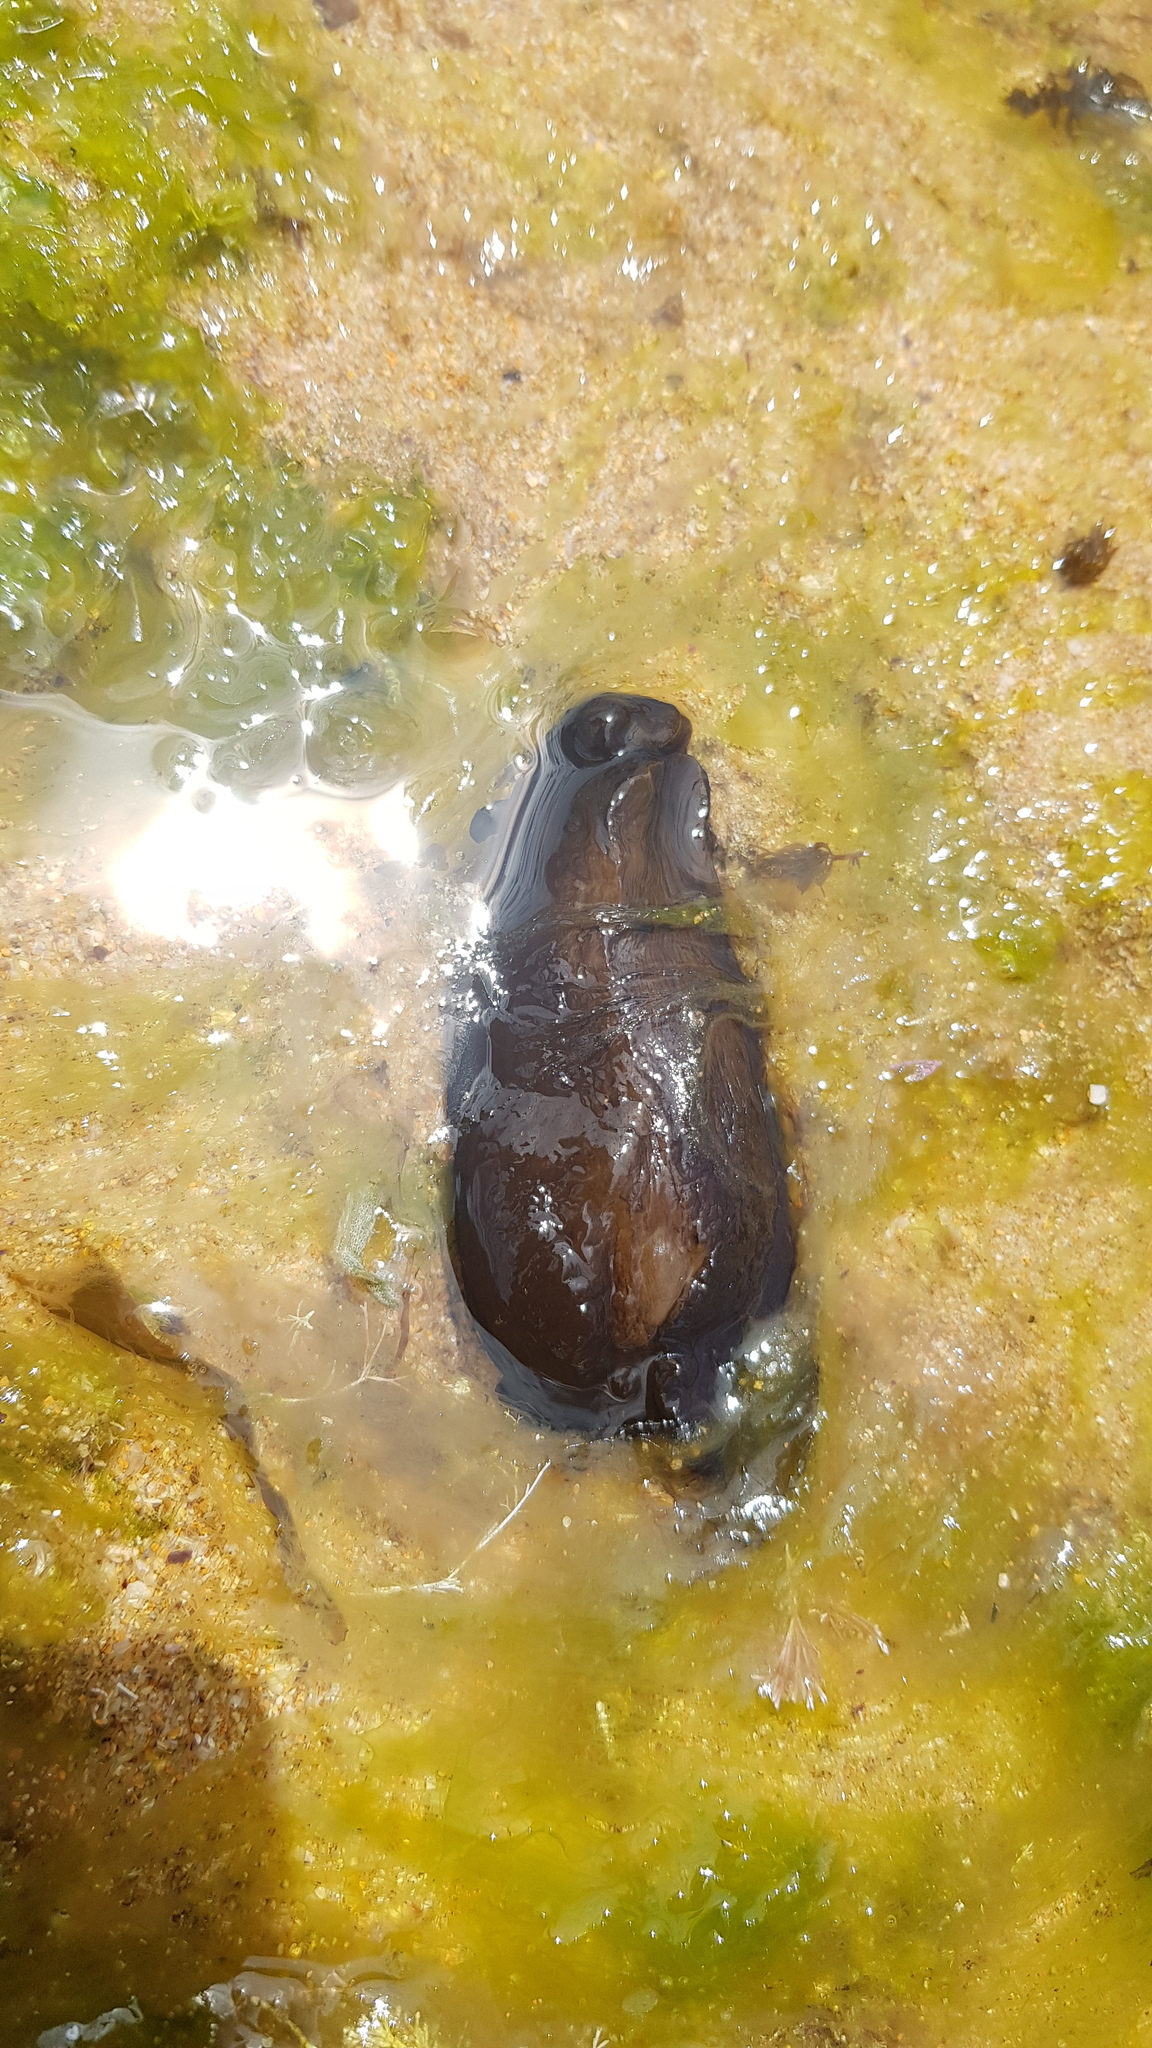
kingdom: Animalia
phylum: Mollusca
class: Gastropoda
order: Aplysiida
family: Aplysiidae
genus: Aplysia
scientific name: Aplysia juliana
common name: Walking sea hare
